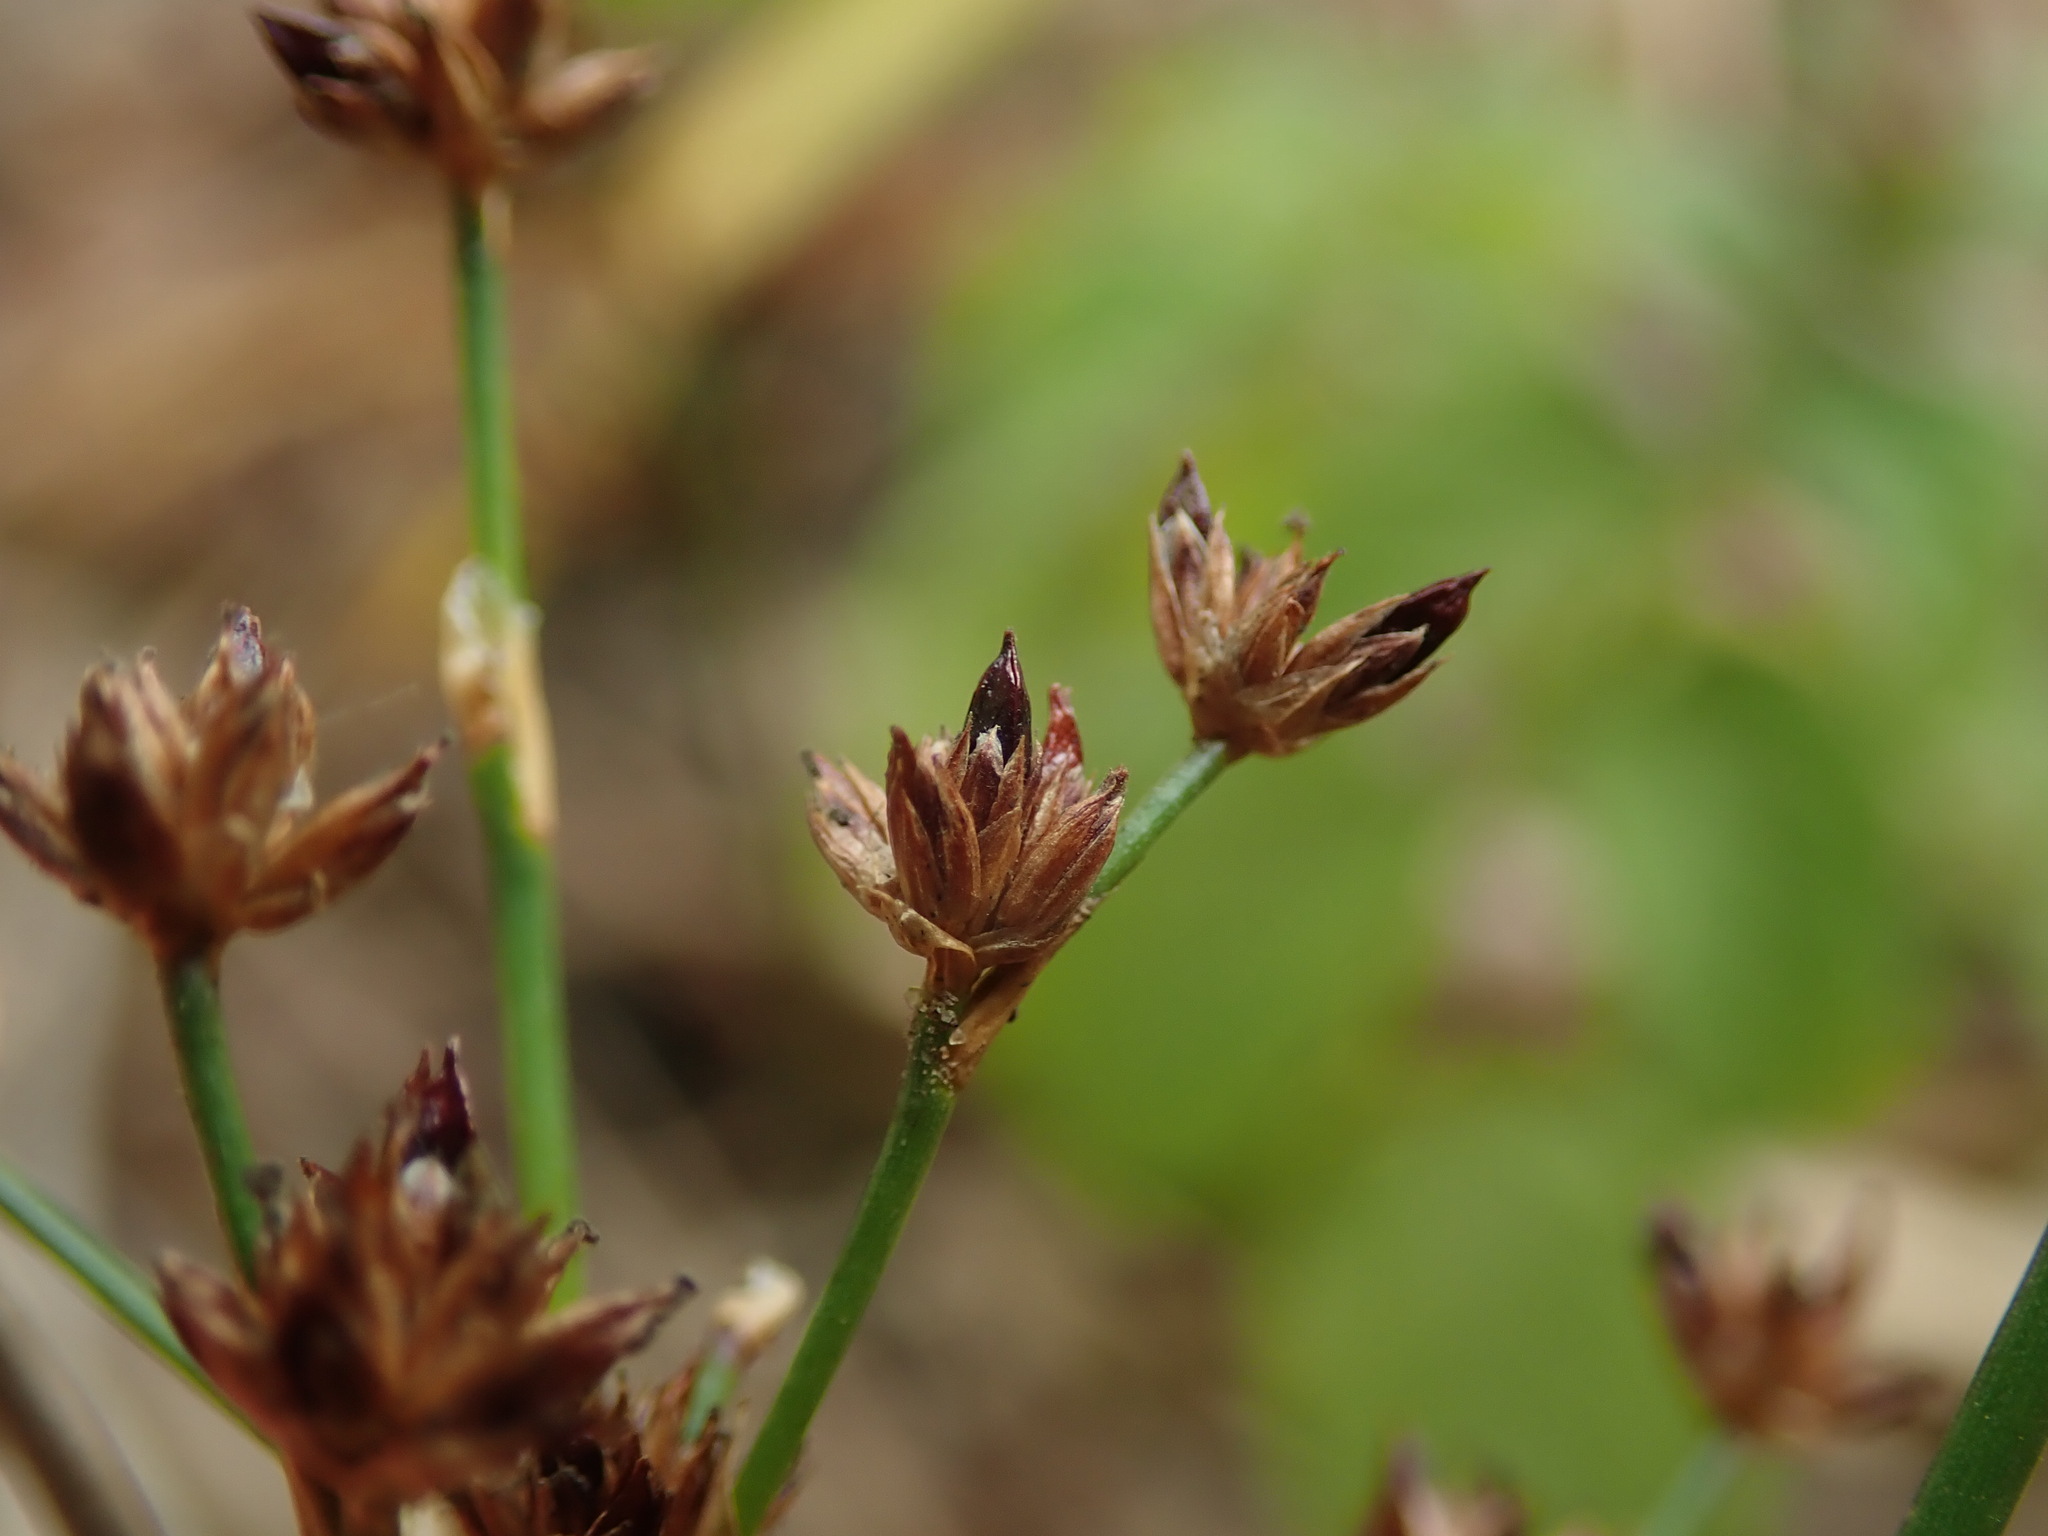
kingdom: Plantae
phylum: Tracheophyta
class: Liliopsida
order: Poales
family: Juncaceae
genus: Juncus
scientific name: Juncus articulatus
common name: Jointed rush
